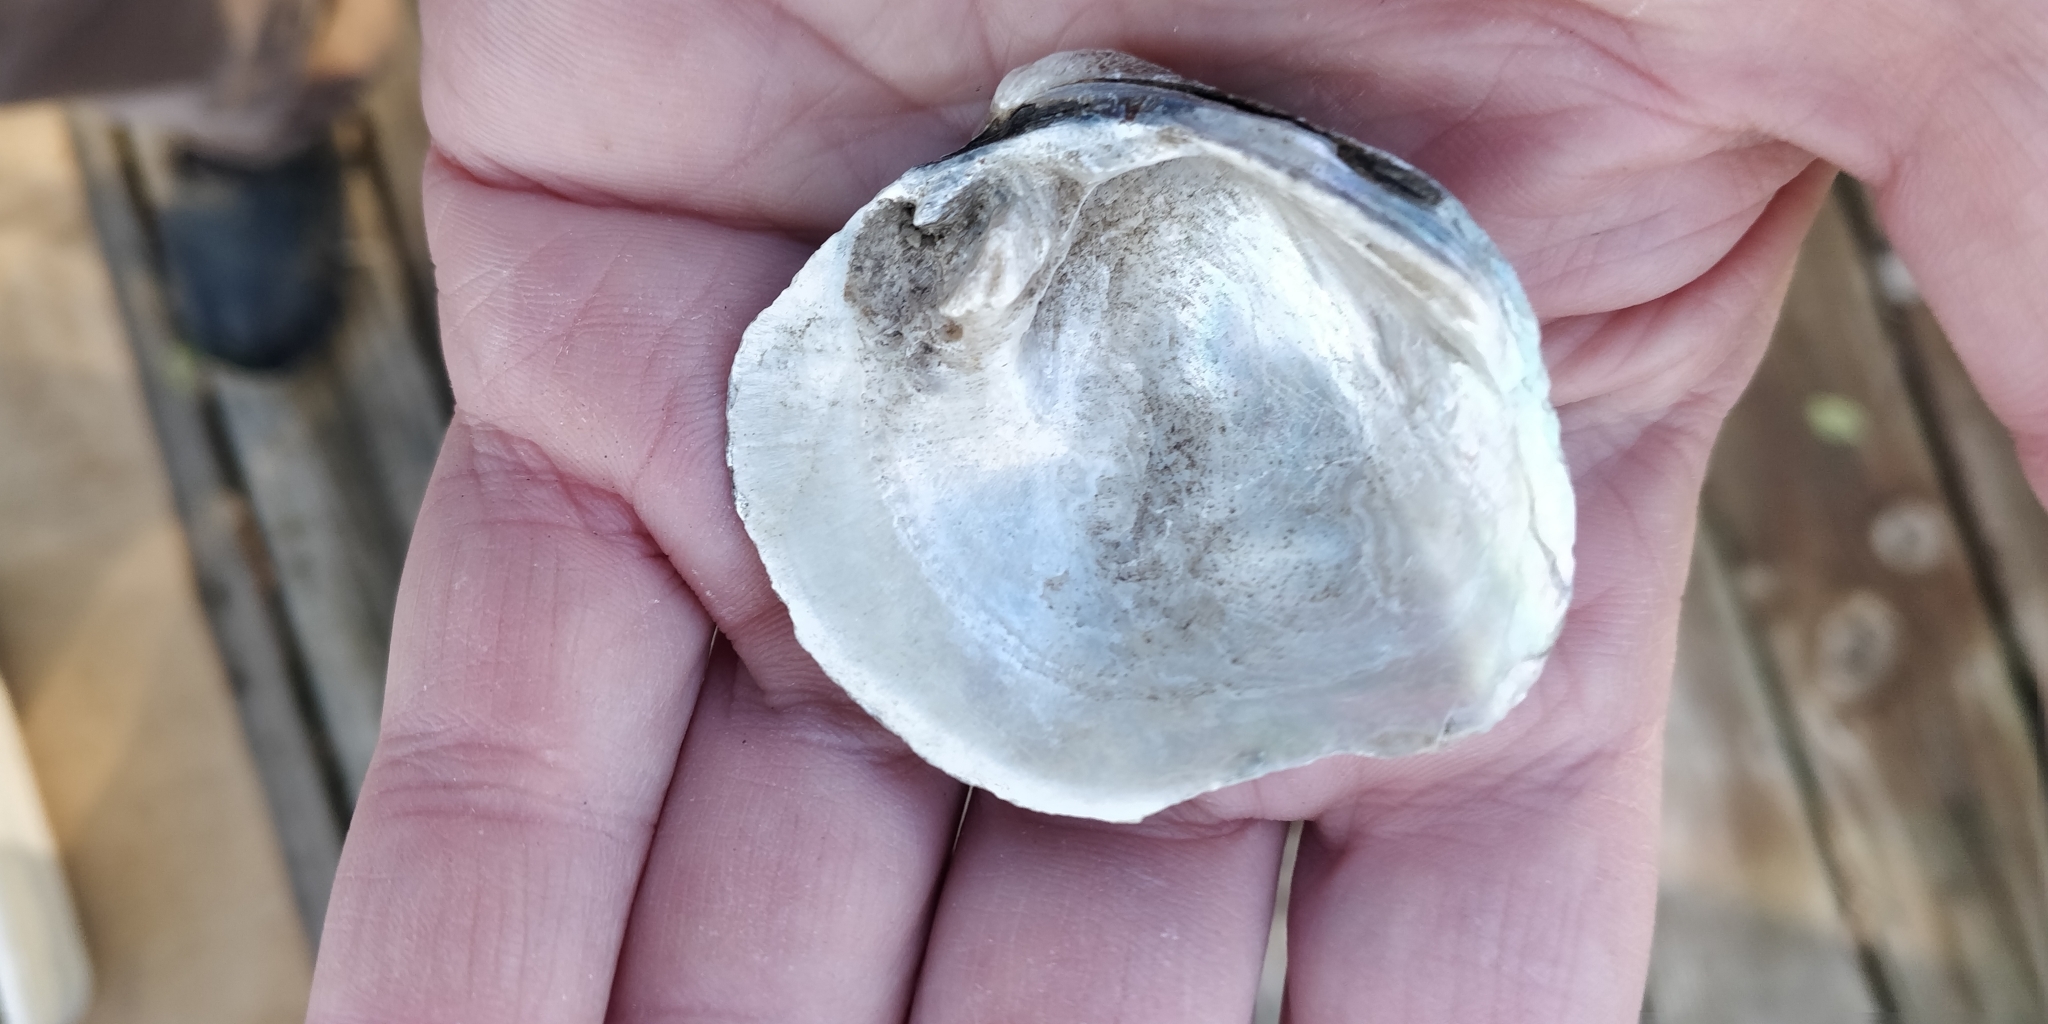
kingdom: Animalia
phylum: Mollusca
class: Bivalvia
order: Unionida
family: Unionidae
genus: Quadrula
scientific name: Quadrula quadrula
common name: Mapleleaf
